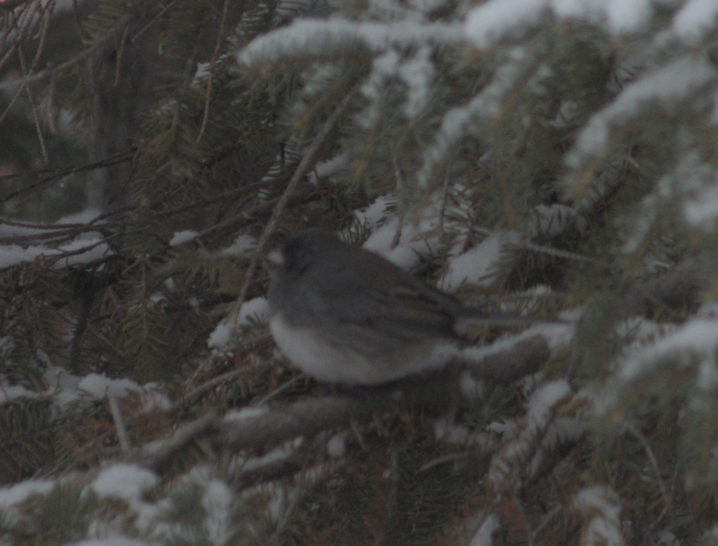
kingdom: Animalia
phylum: Chordata
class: Aves
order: Passeriformes
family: Passerellidae
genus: Junco
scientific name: Junco hyemalis
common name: Dark-eyed junco
